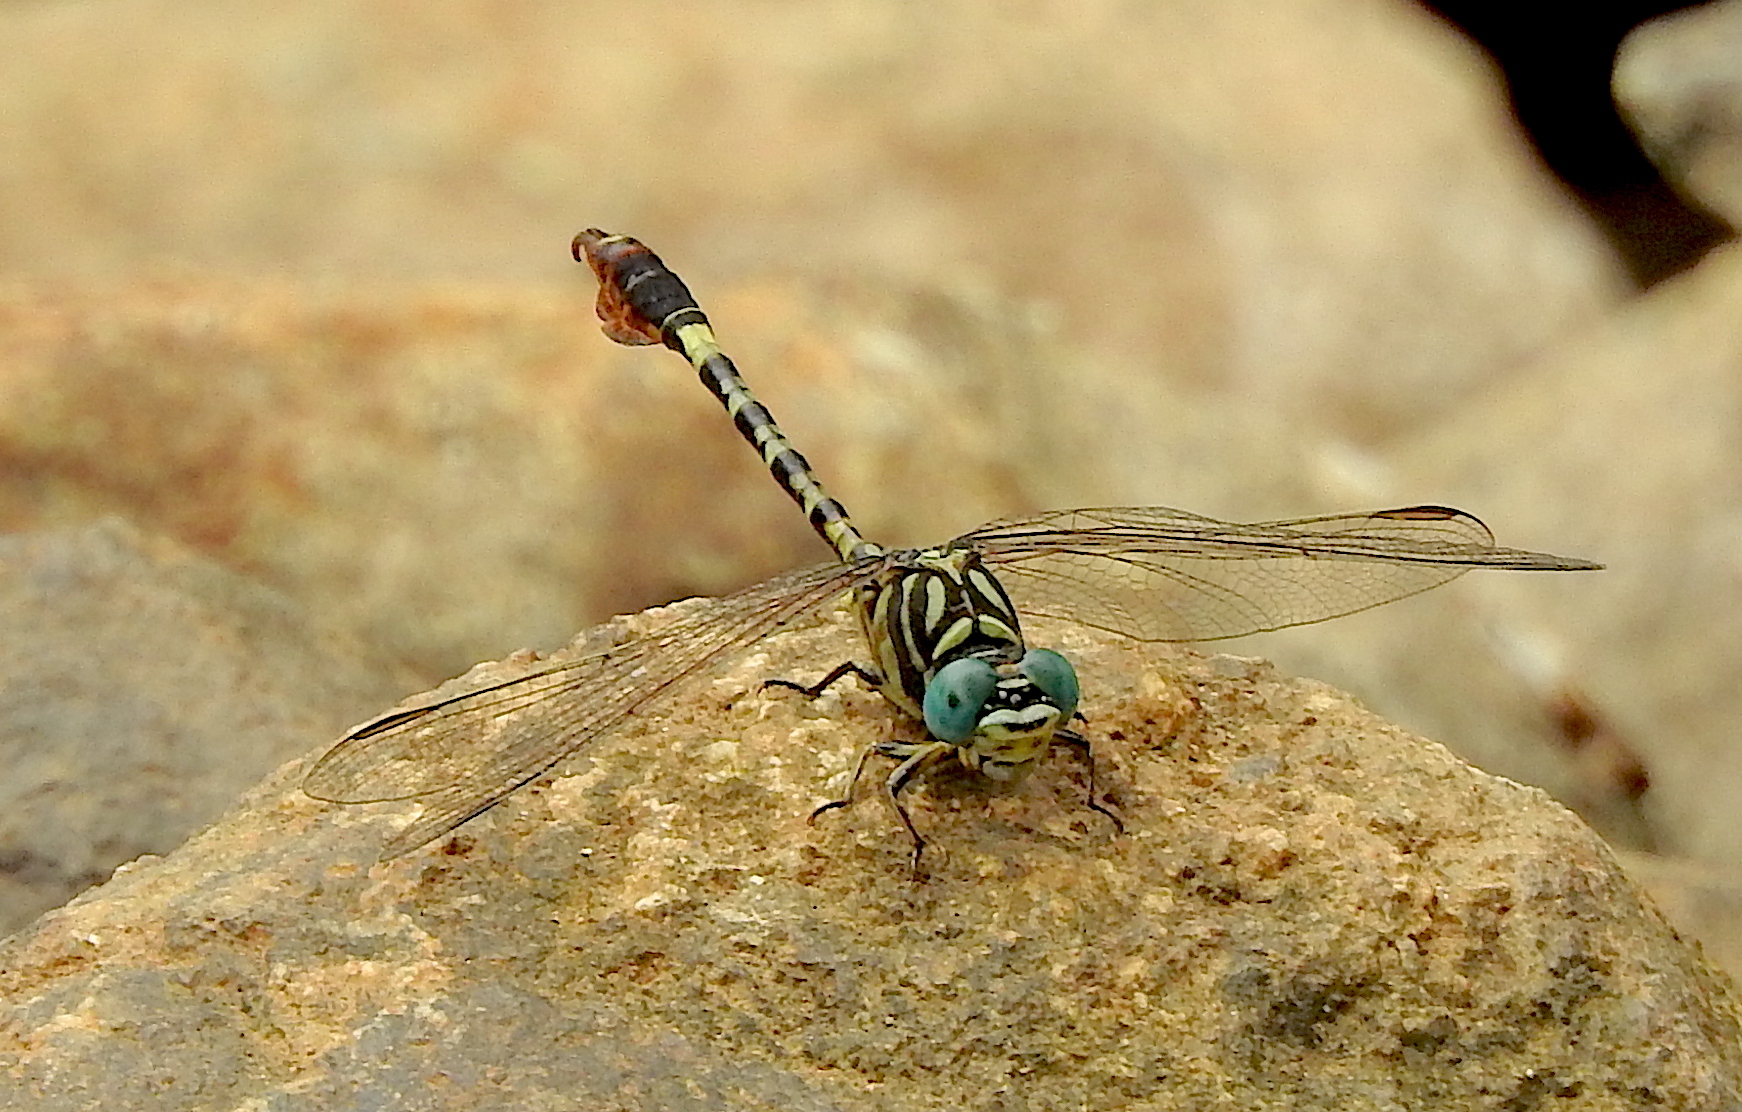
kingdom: Animalia
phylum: Arthropoda
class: Insecta
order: Odonata
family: Gomphidae
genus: Paragomphus
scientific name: Paragomphus lineatus
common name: Lined hooktail
